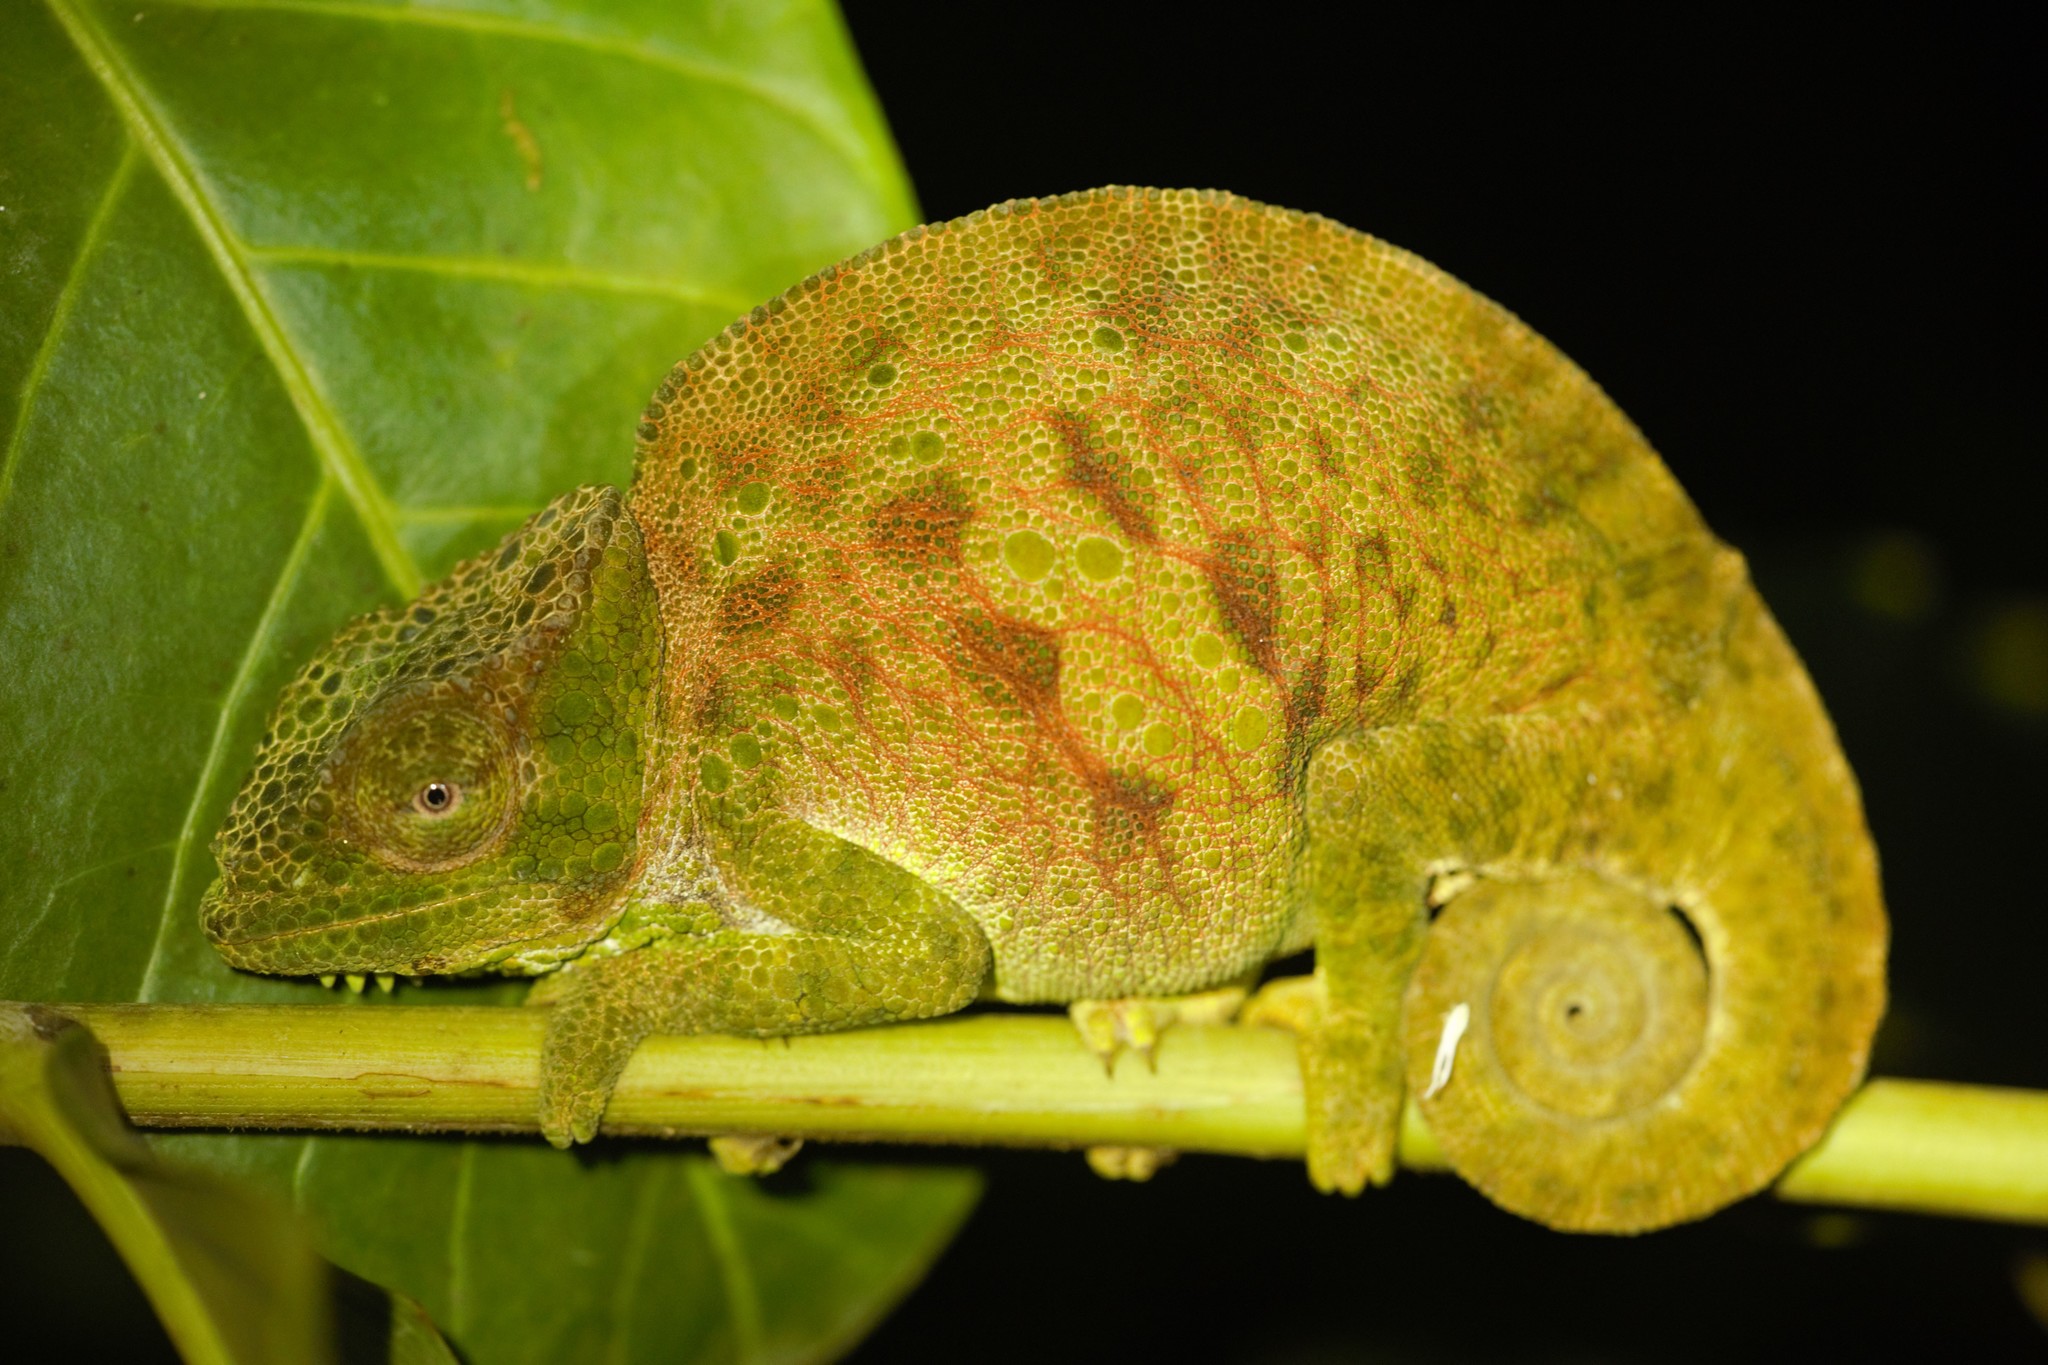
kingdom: Animalia
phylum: Chordata
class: Squamata
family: Chamaeleonidae
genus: Trioceros
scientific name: Trioceros montium
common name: Cameroon sailfin chameleon
